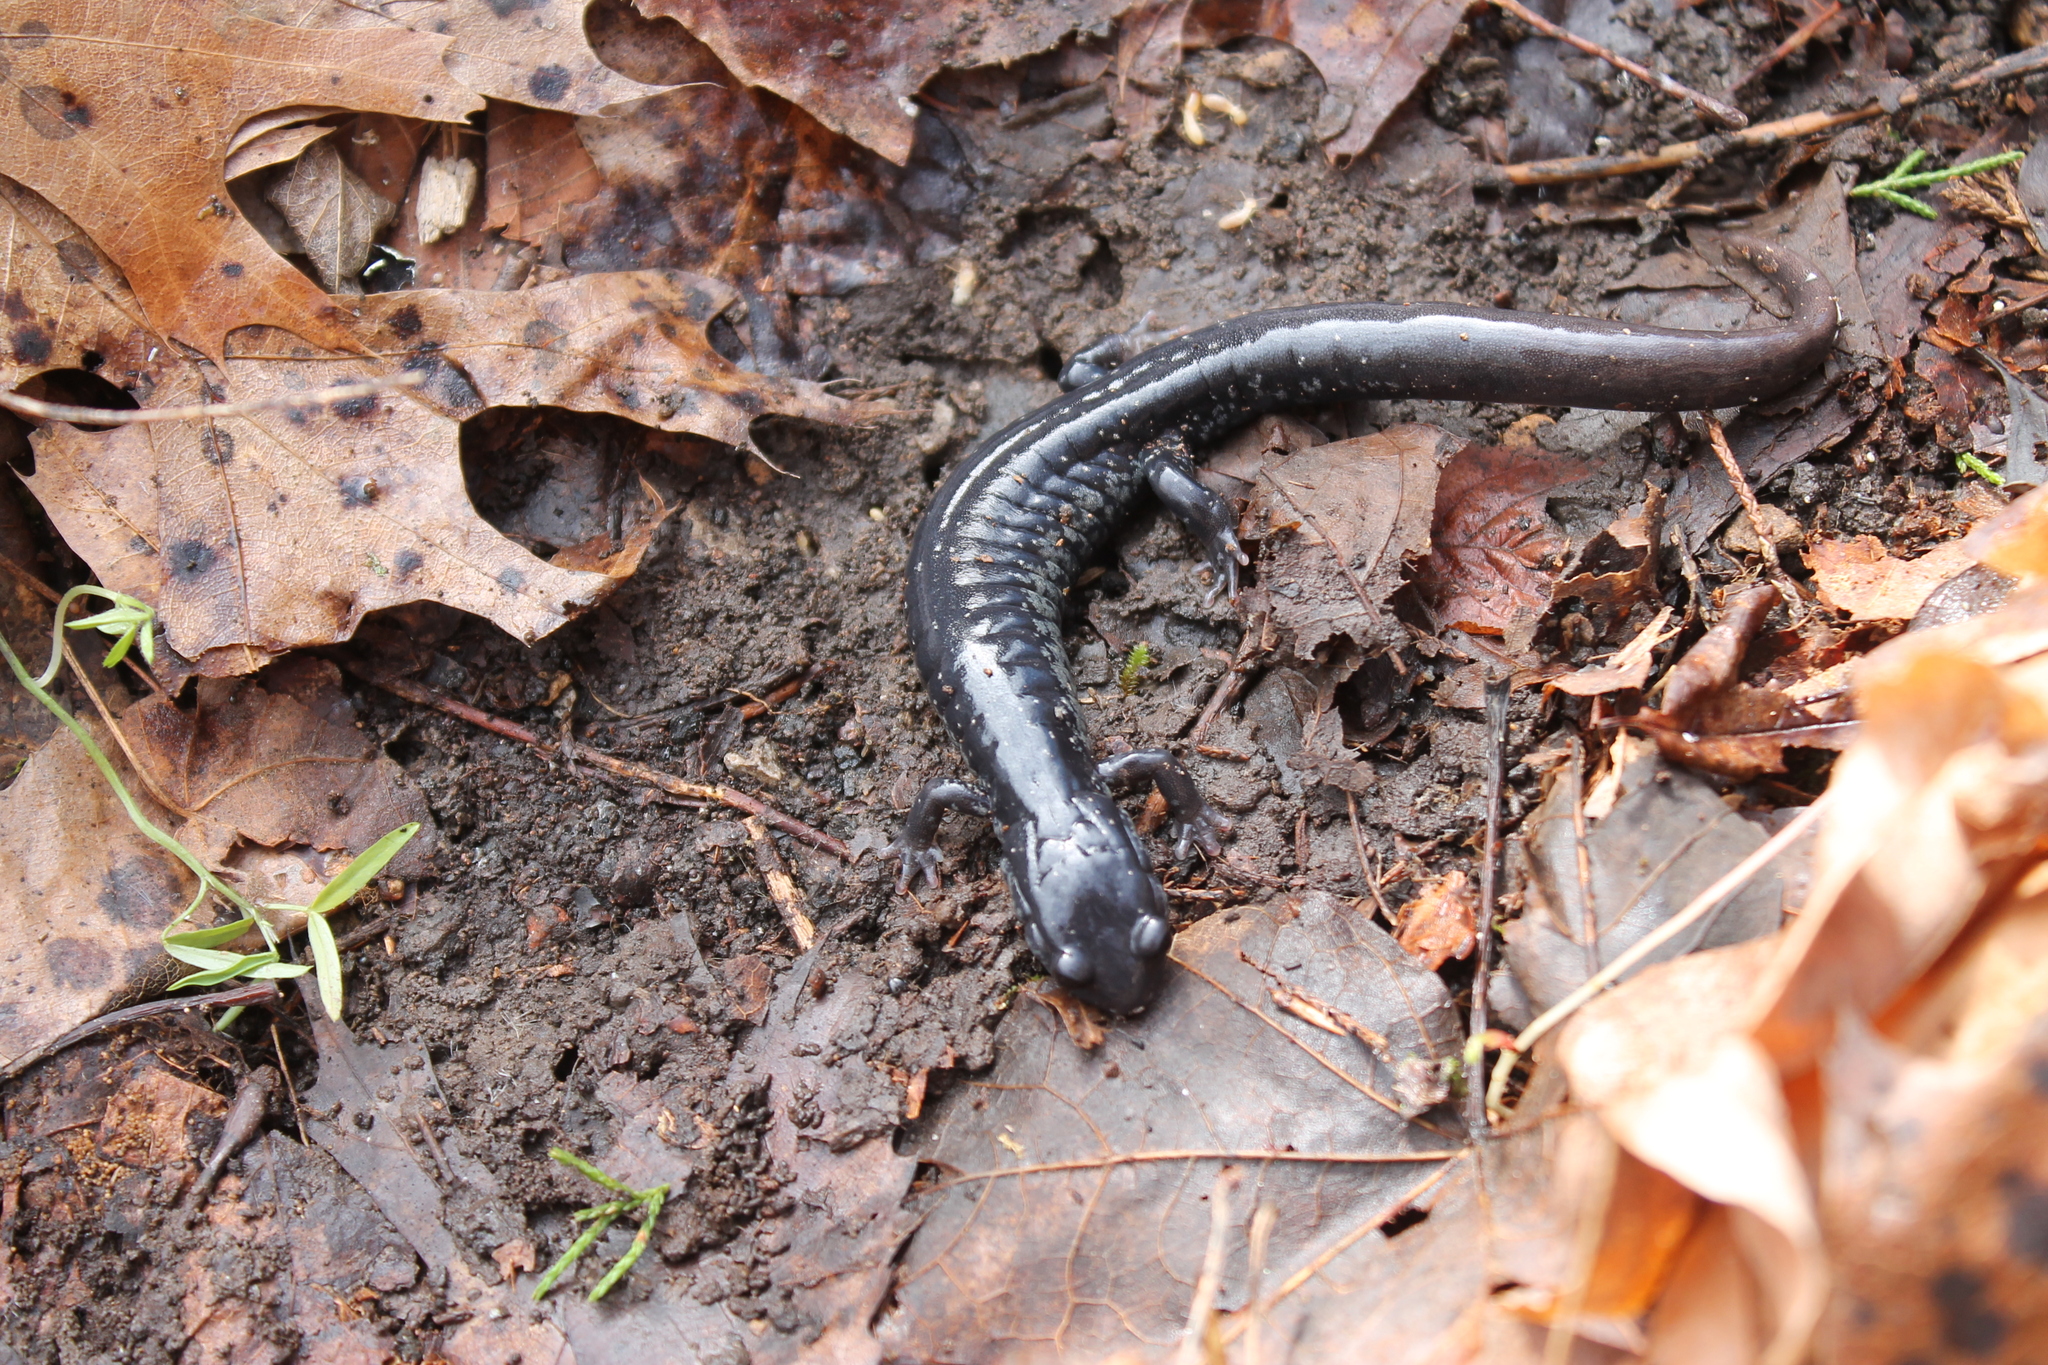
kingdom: Animalia
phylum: Chordata
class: Amphibia
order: Caudata
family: Plethodontidae
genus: Plethodon
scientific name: Plethodon glutinosus
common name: Northern slimy salamander
